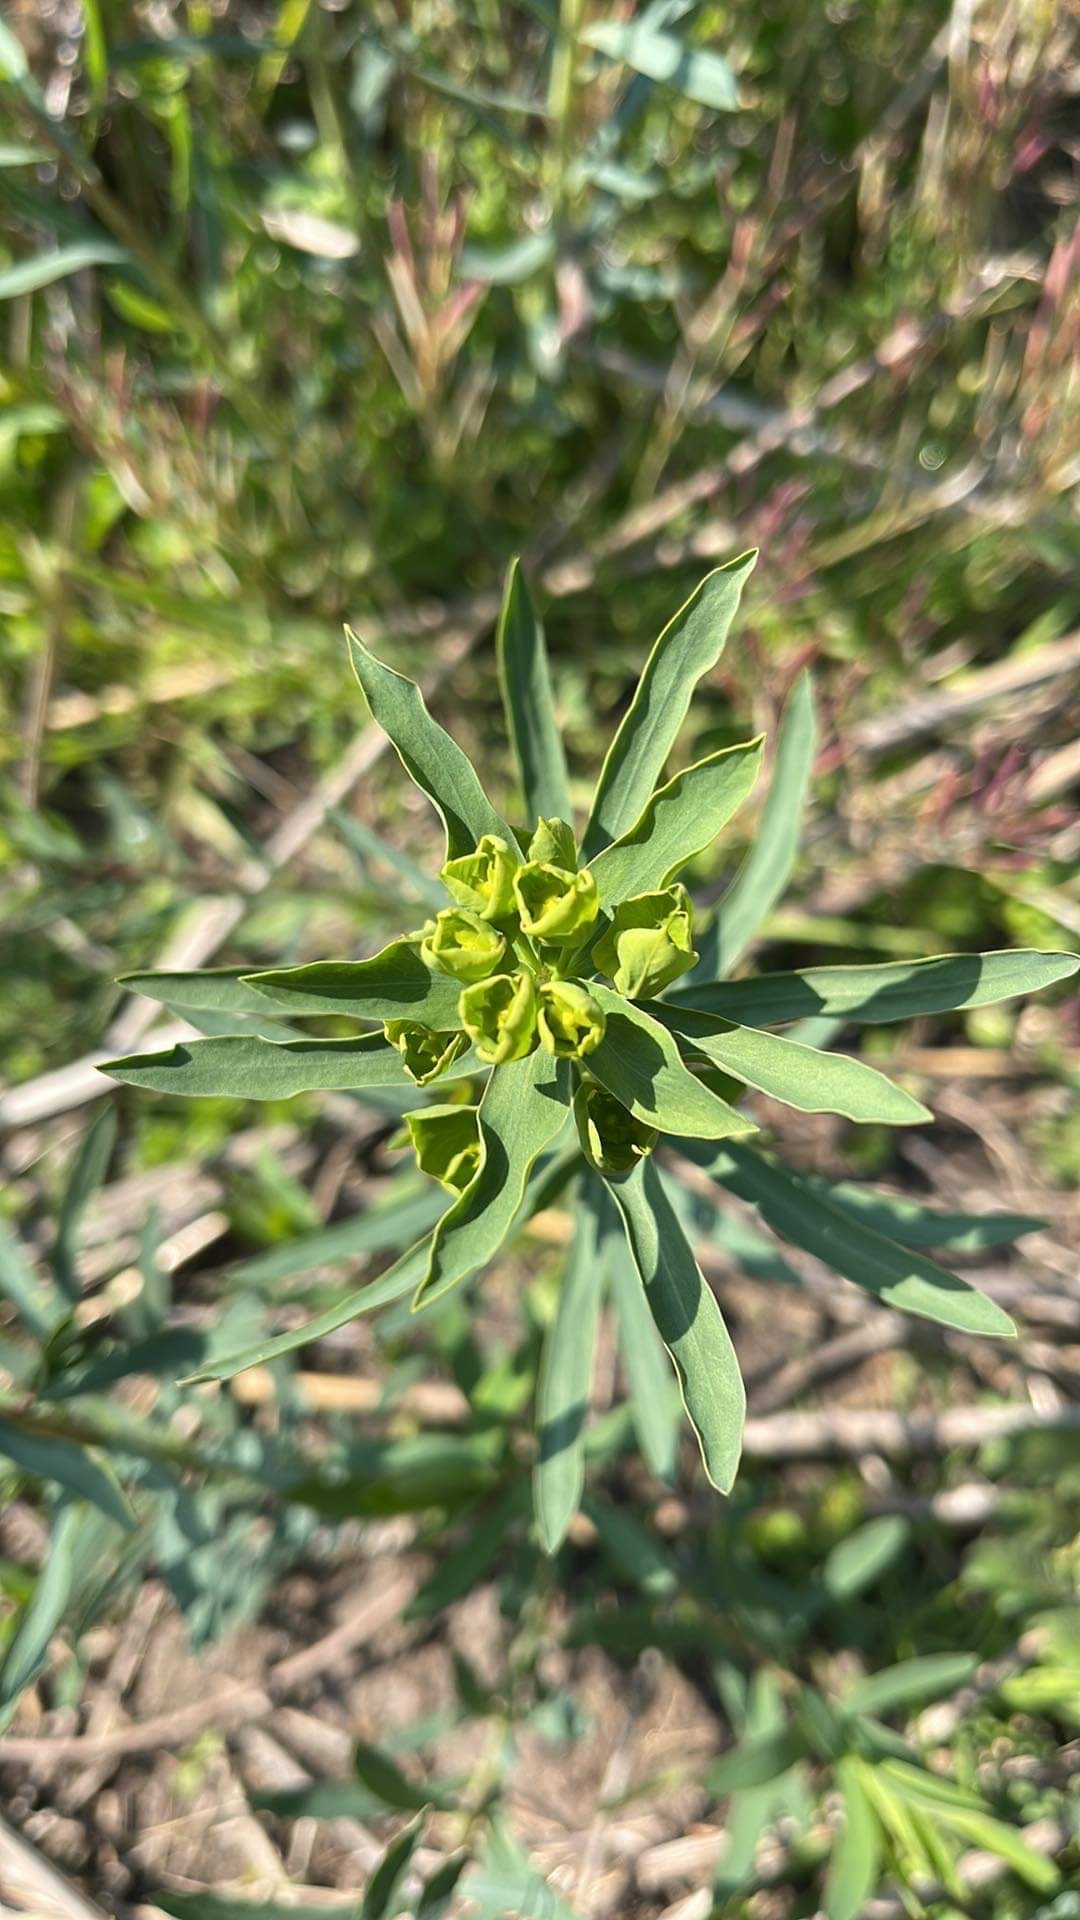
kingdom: Plantae
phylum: Tracheophyta
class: Magnoliopsida
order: Malpighiales
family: Euphorbiaceae
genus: Euphorbia
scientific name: Euphorbia virgata
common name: Leafy spurge
